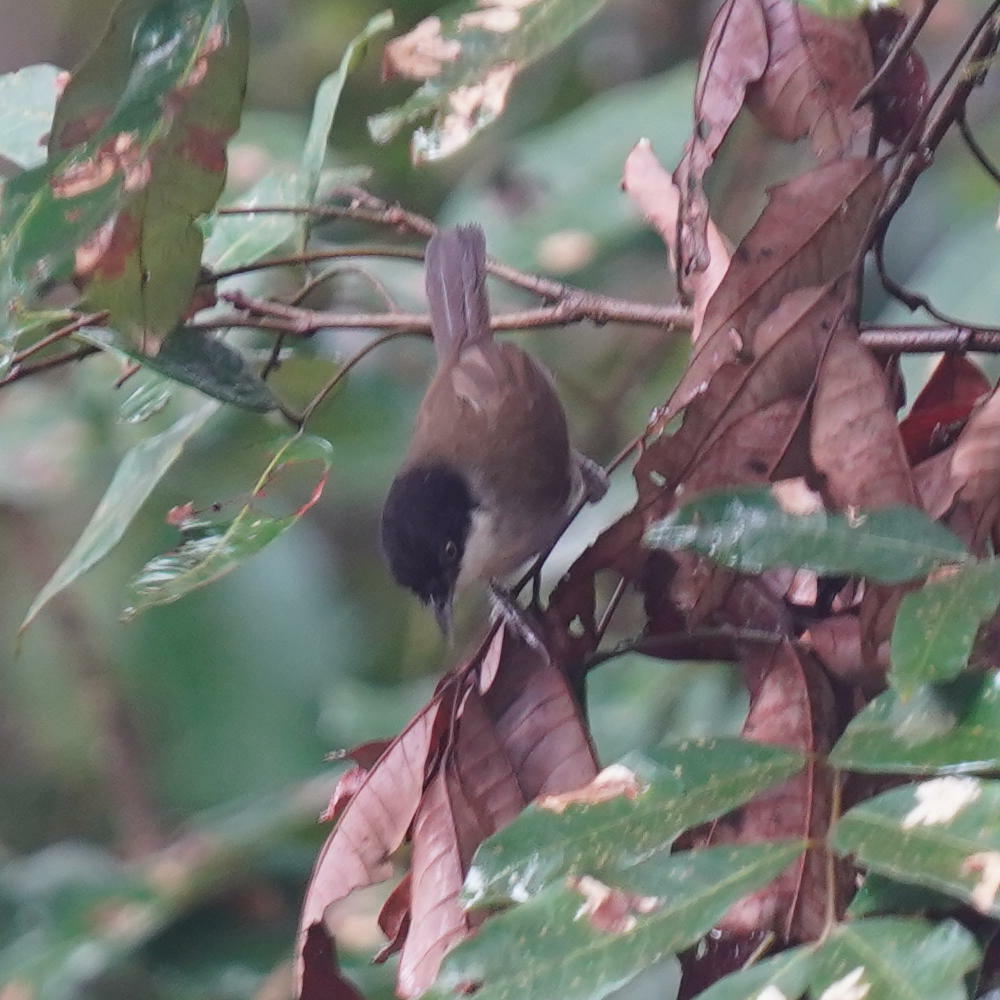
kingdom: Animalia
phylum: Chordata
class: Aves
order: Passeriformes
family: Timaliidae
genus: Rhopocichla
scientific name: Rhopocichla atriceps
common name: Dark-fronted babbler
